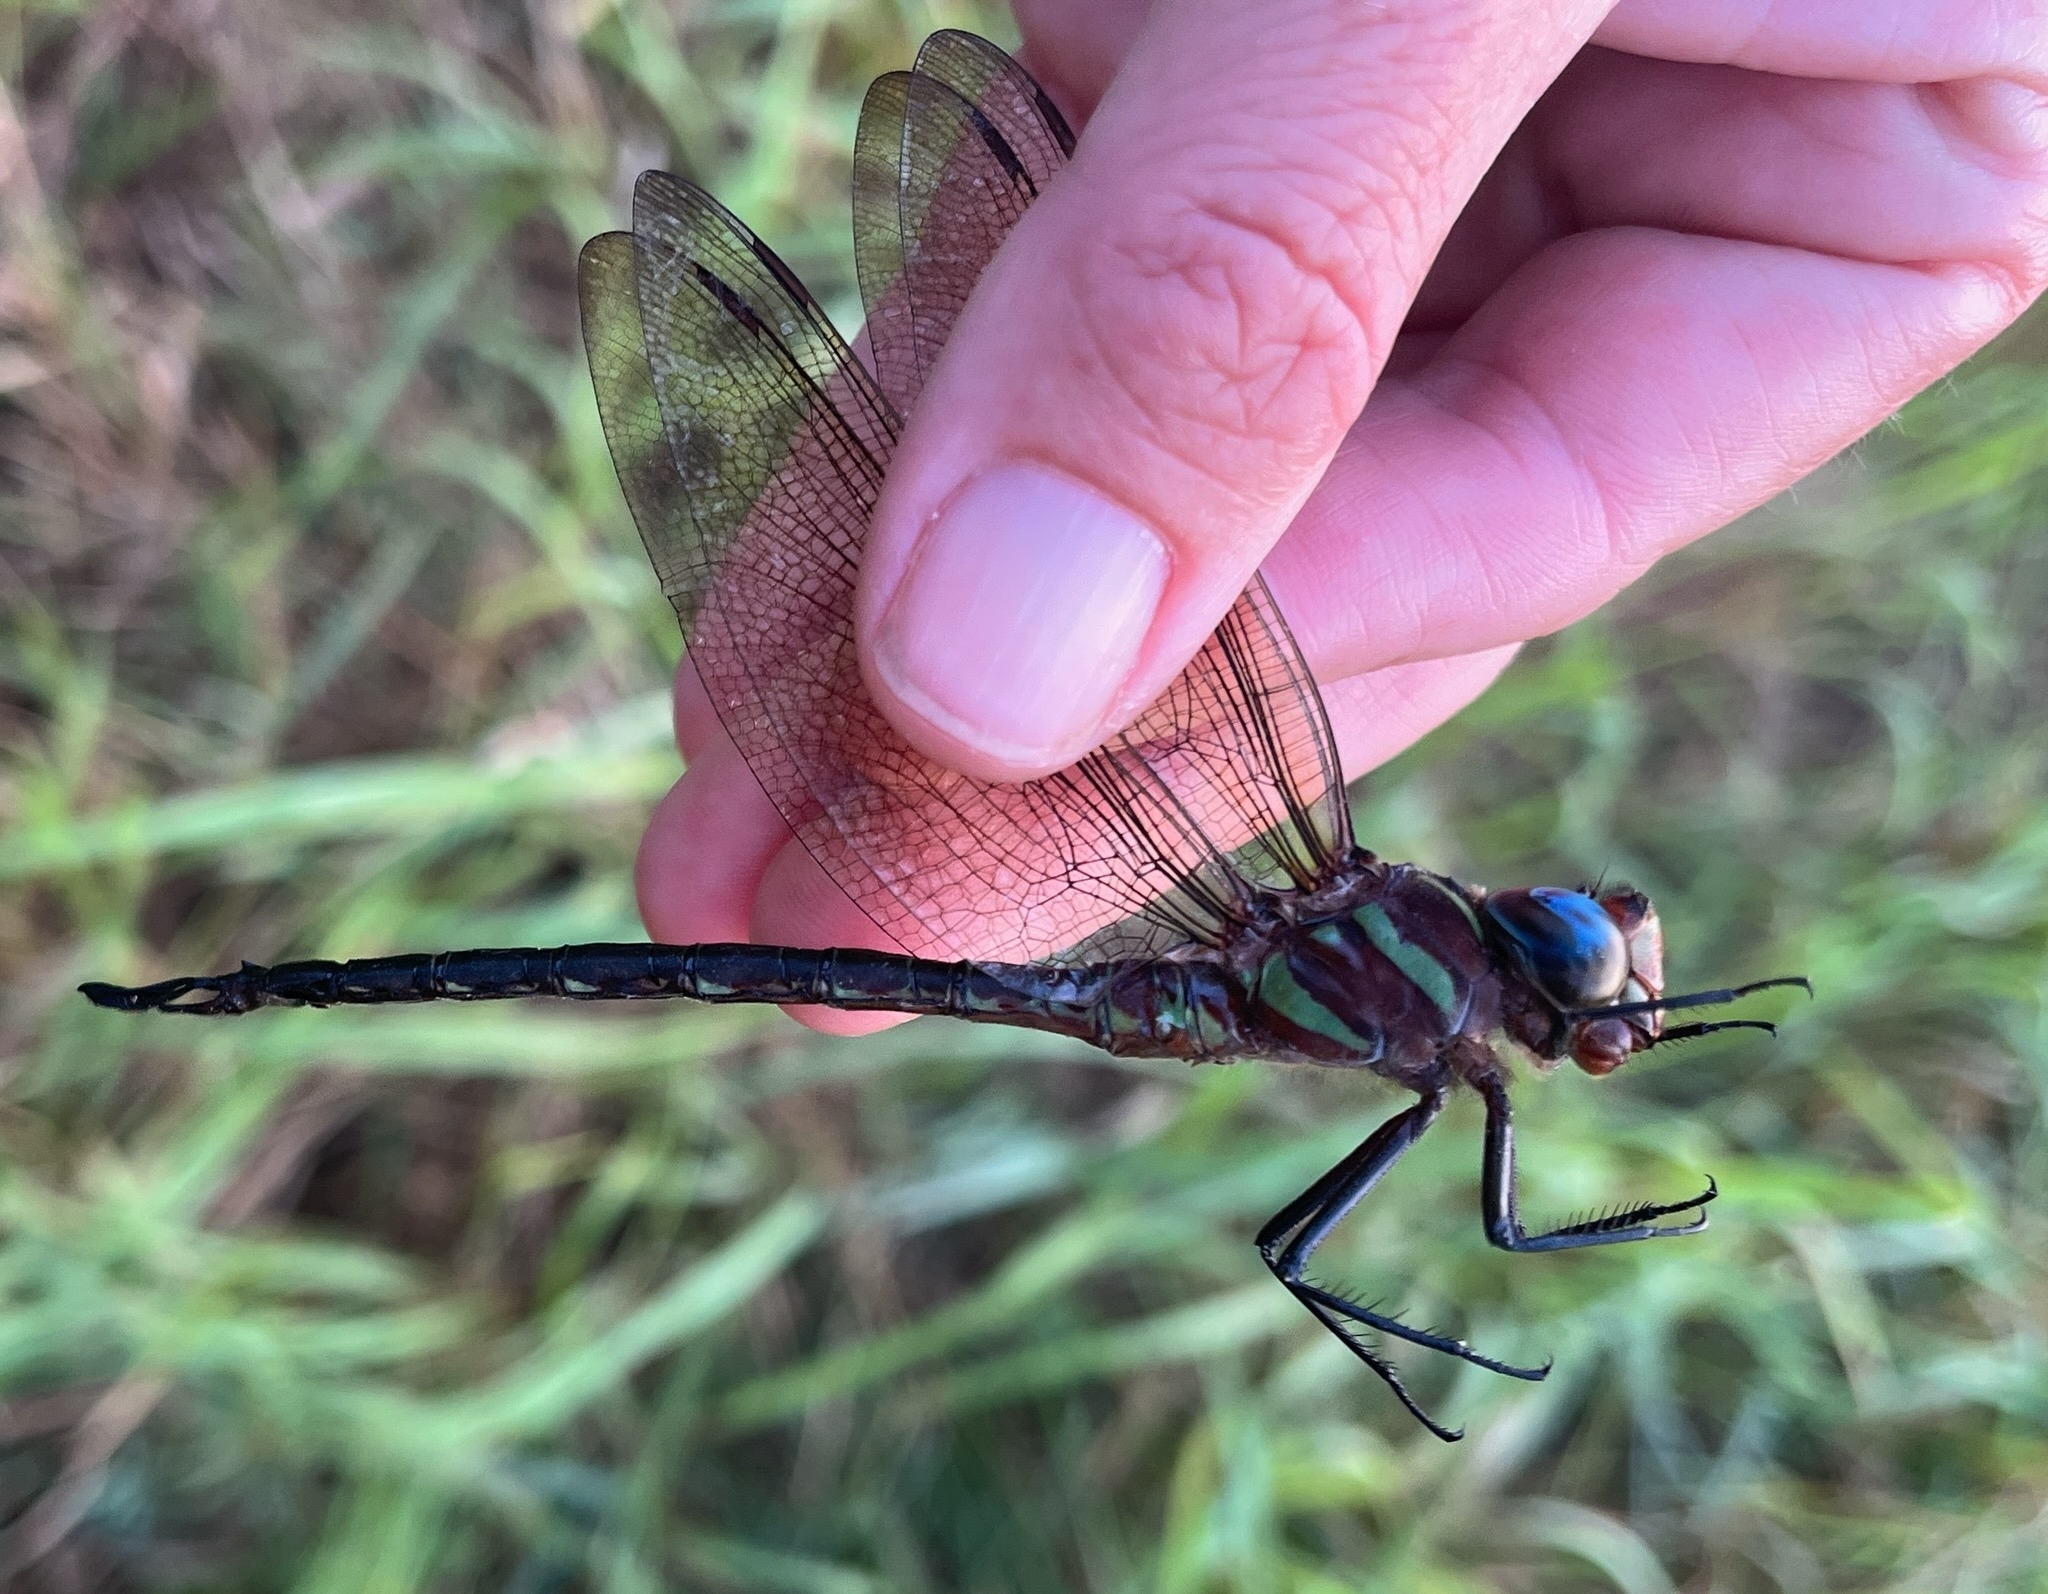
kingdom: Animalia
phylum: Arthropoda
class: Insecta
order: Odonata
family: Aeshnidae
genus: Epiaeschna
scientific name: Epiaeschna heros
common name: Swamp darner
